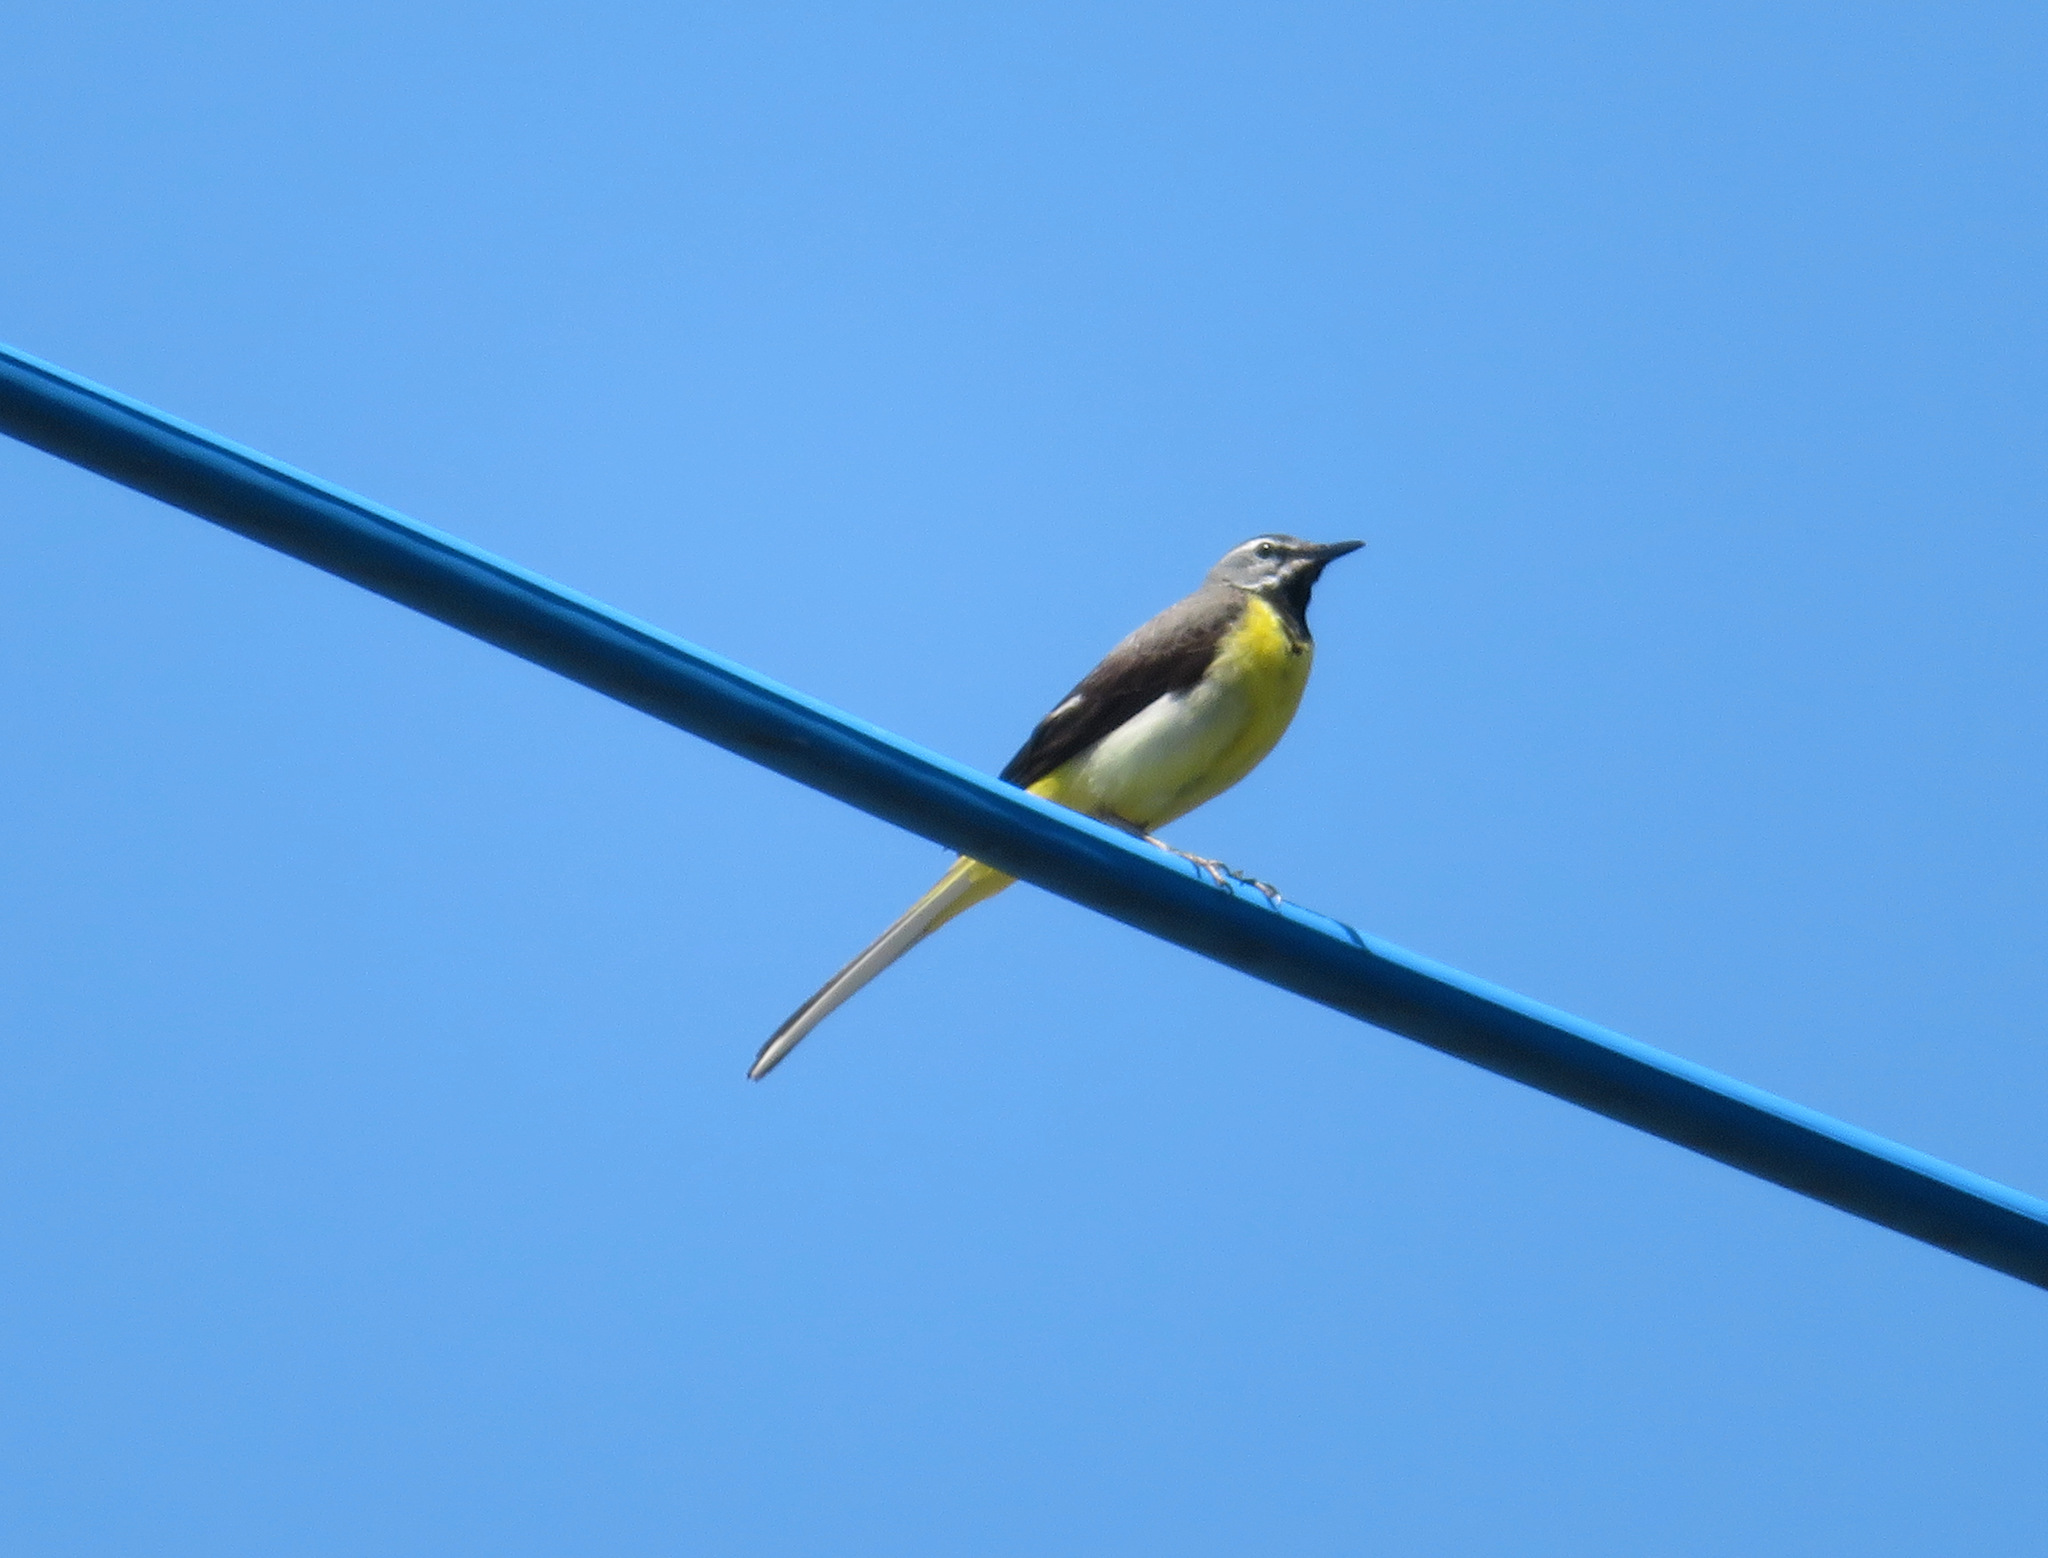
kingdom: Animalia
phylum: Chordata
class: Aves
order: Passeriformes
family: Motacillidae
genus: Motacilla
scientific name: Motacilla cinerea
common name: Grey wagtail
